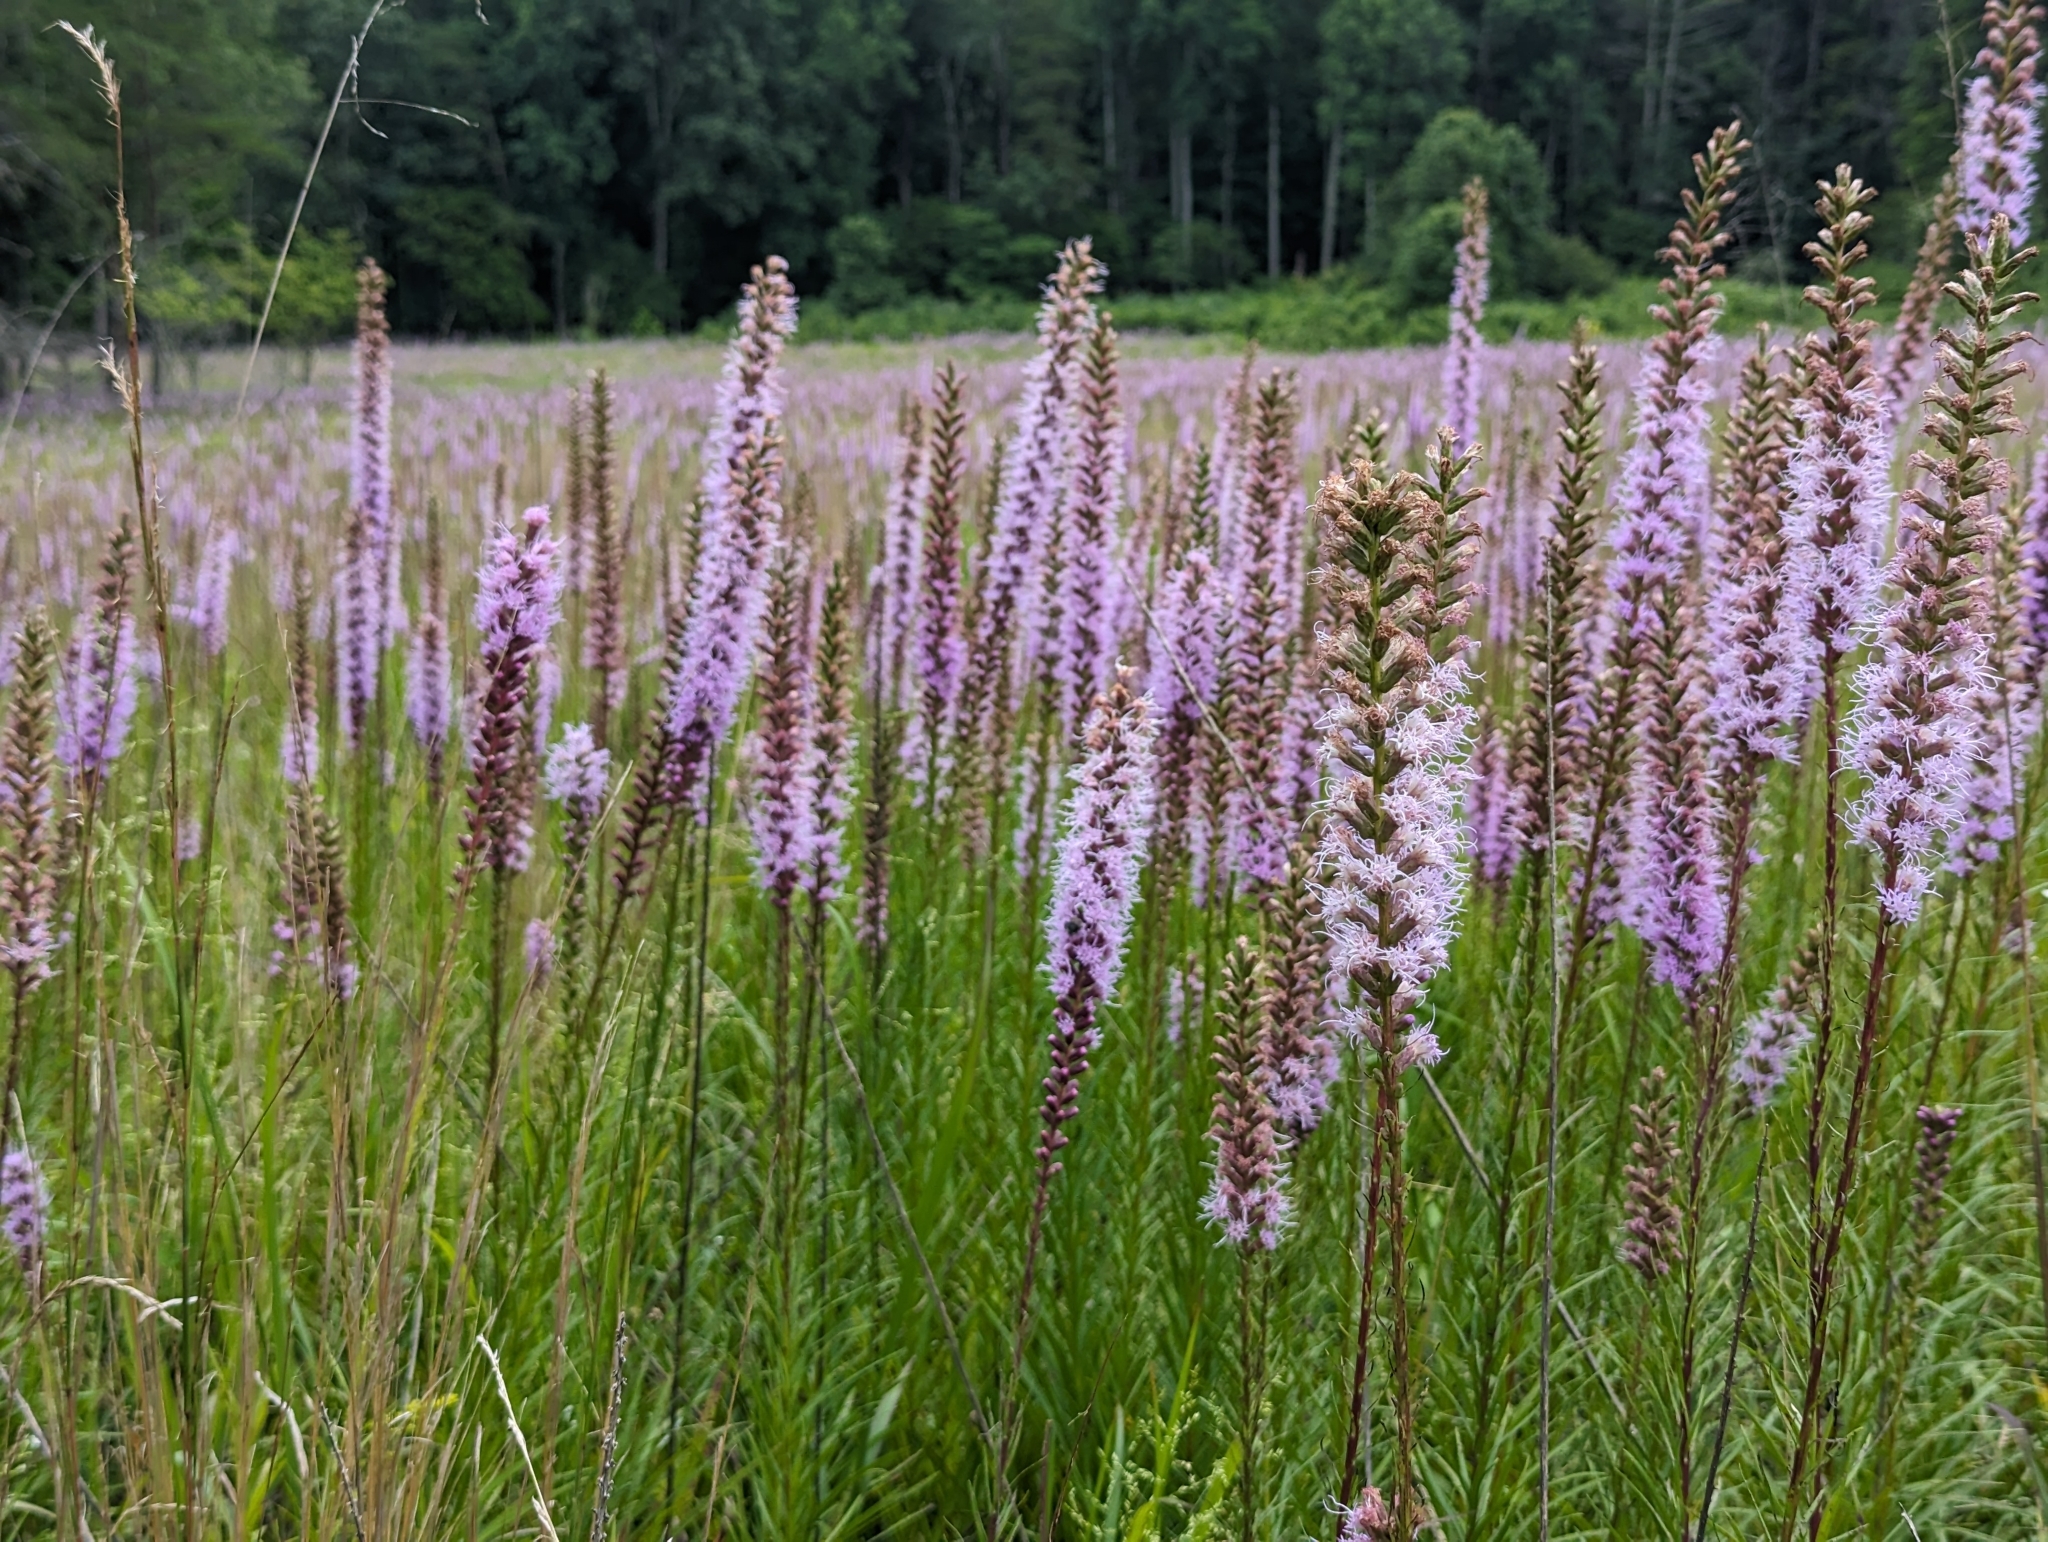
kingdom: Plantae
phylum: Tracheophyta
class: Magnoliopsida
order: Asterales
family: Asteraceae
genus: Liatris
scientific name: Liatris spicata
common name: Florist gayfeather
